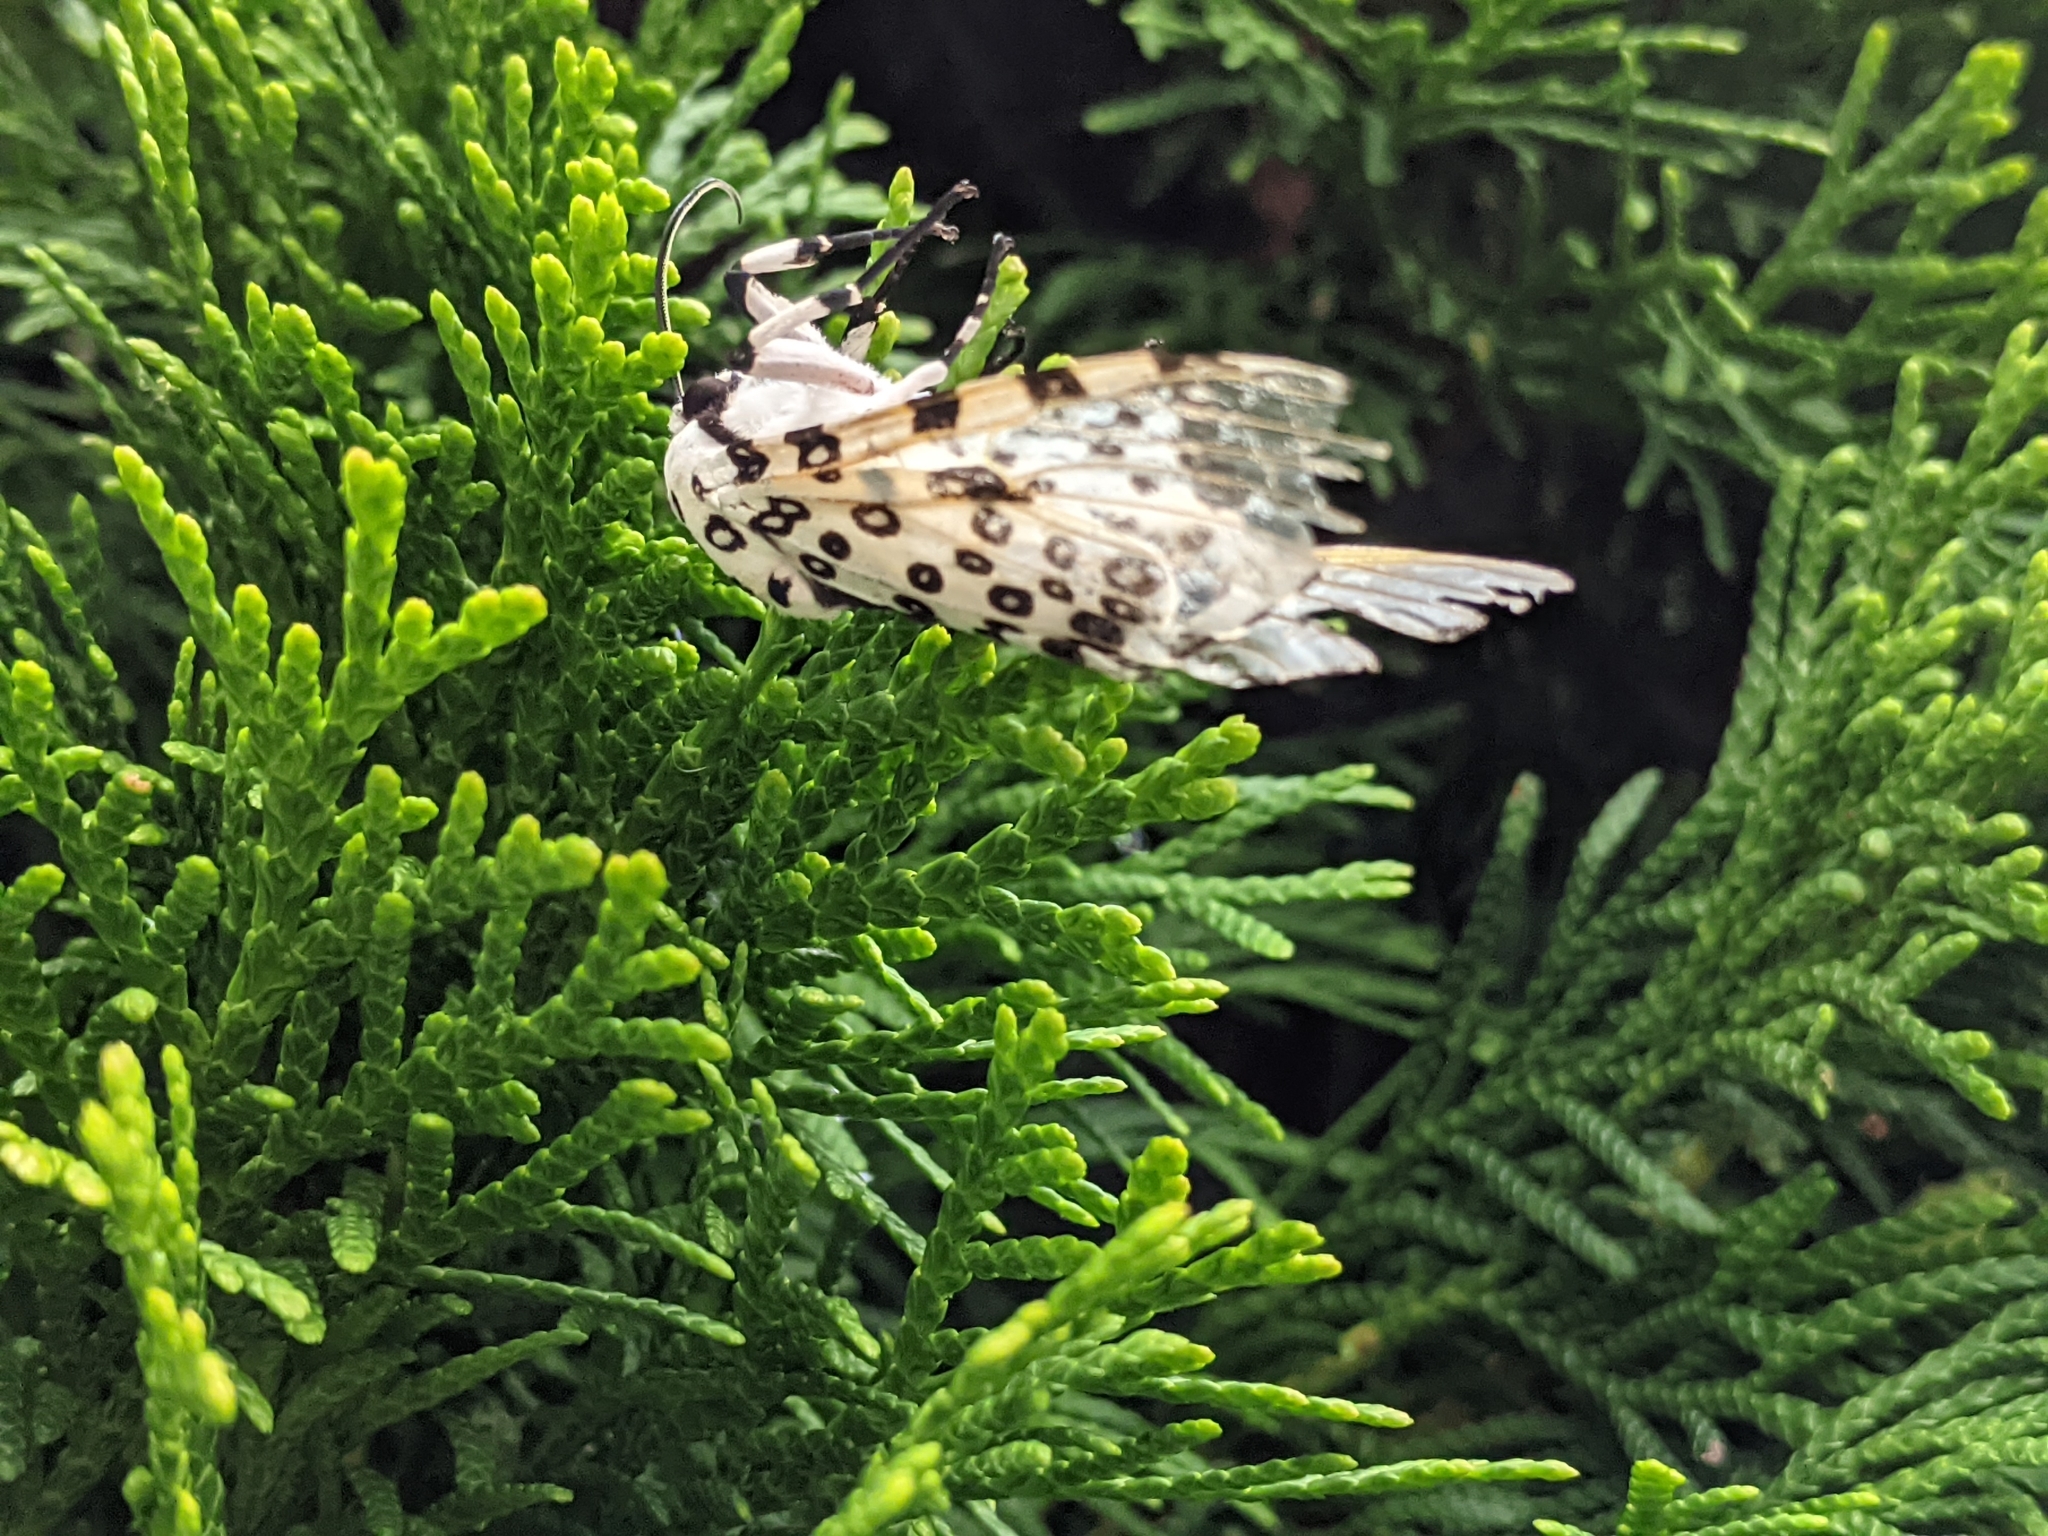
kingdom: Animalia
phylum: Arthropoda
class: Insecta
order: Lepidoptera
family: Erebidae
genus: Hypercompe
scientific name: Hypercompe scribonia
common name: Giant leopard moth
